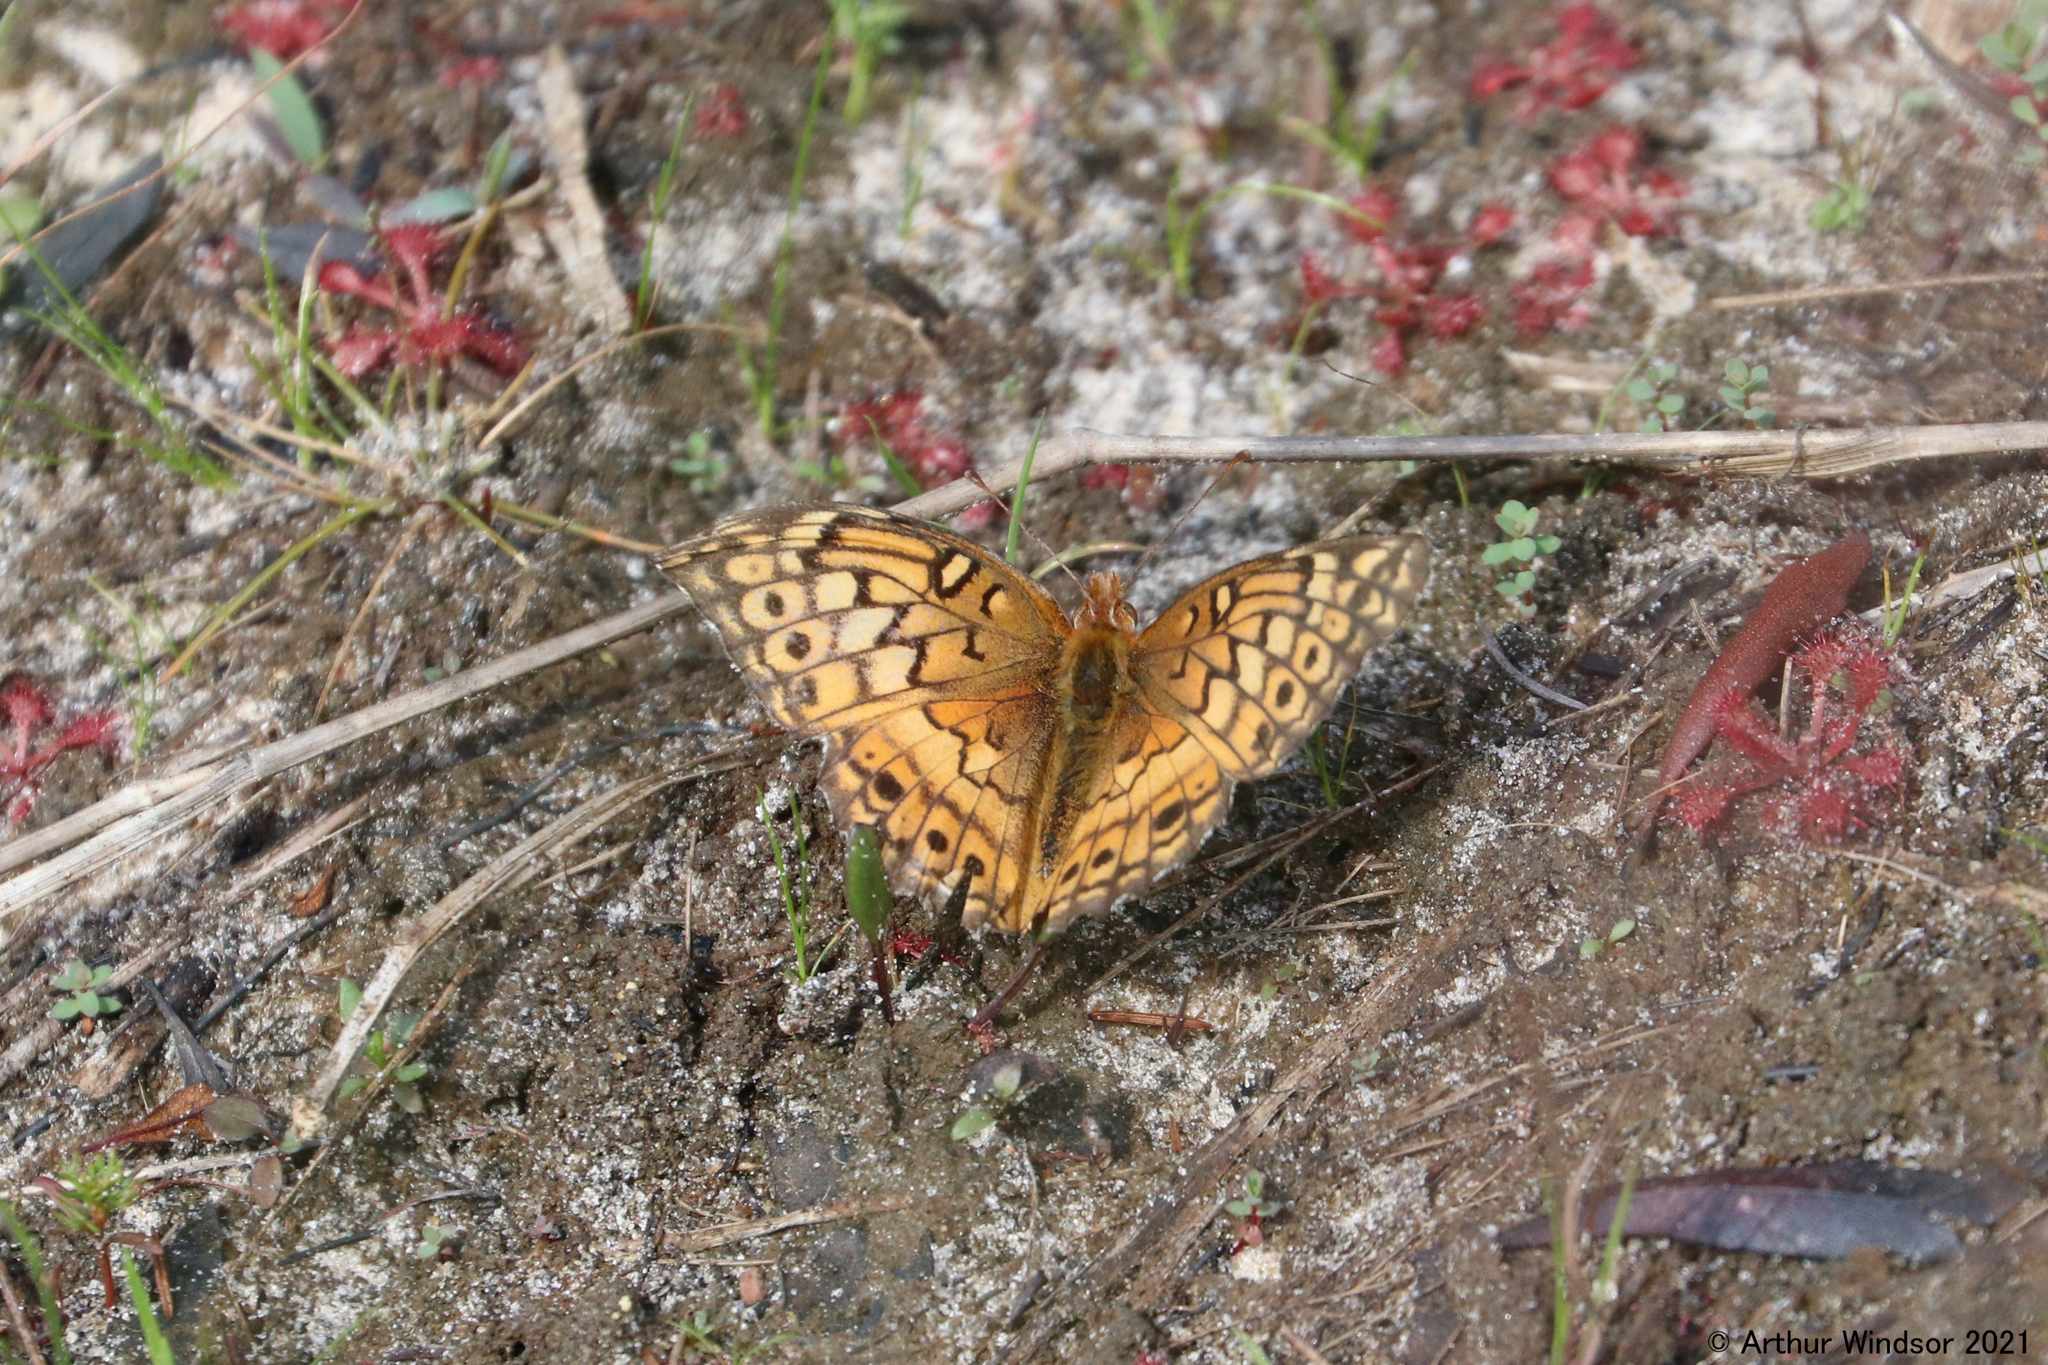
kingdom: Animalia
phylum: Arthropoda
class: Insecta
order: Lepidoptera
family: Nymphalidae
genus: Euptoieta
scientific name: Euptoieta claudia
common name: Variegated fritillary
